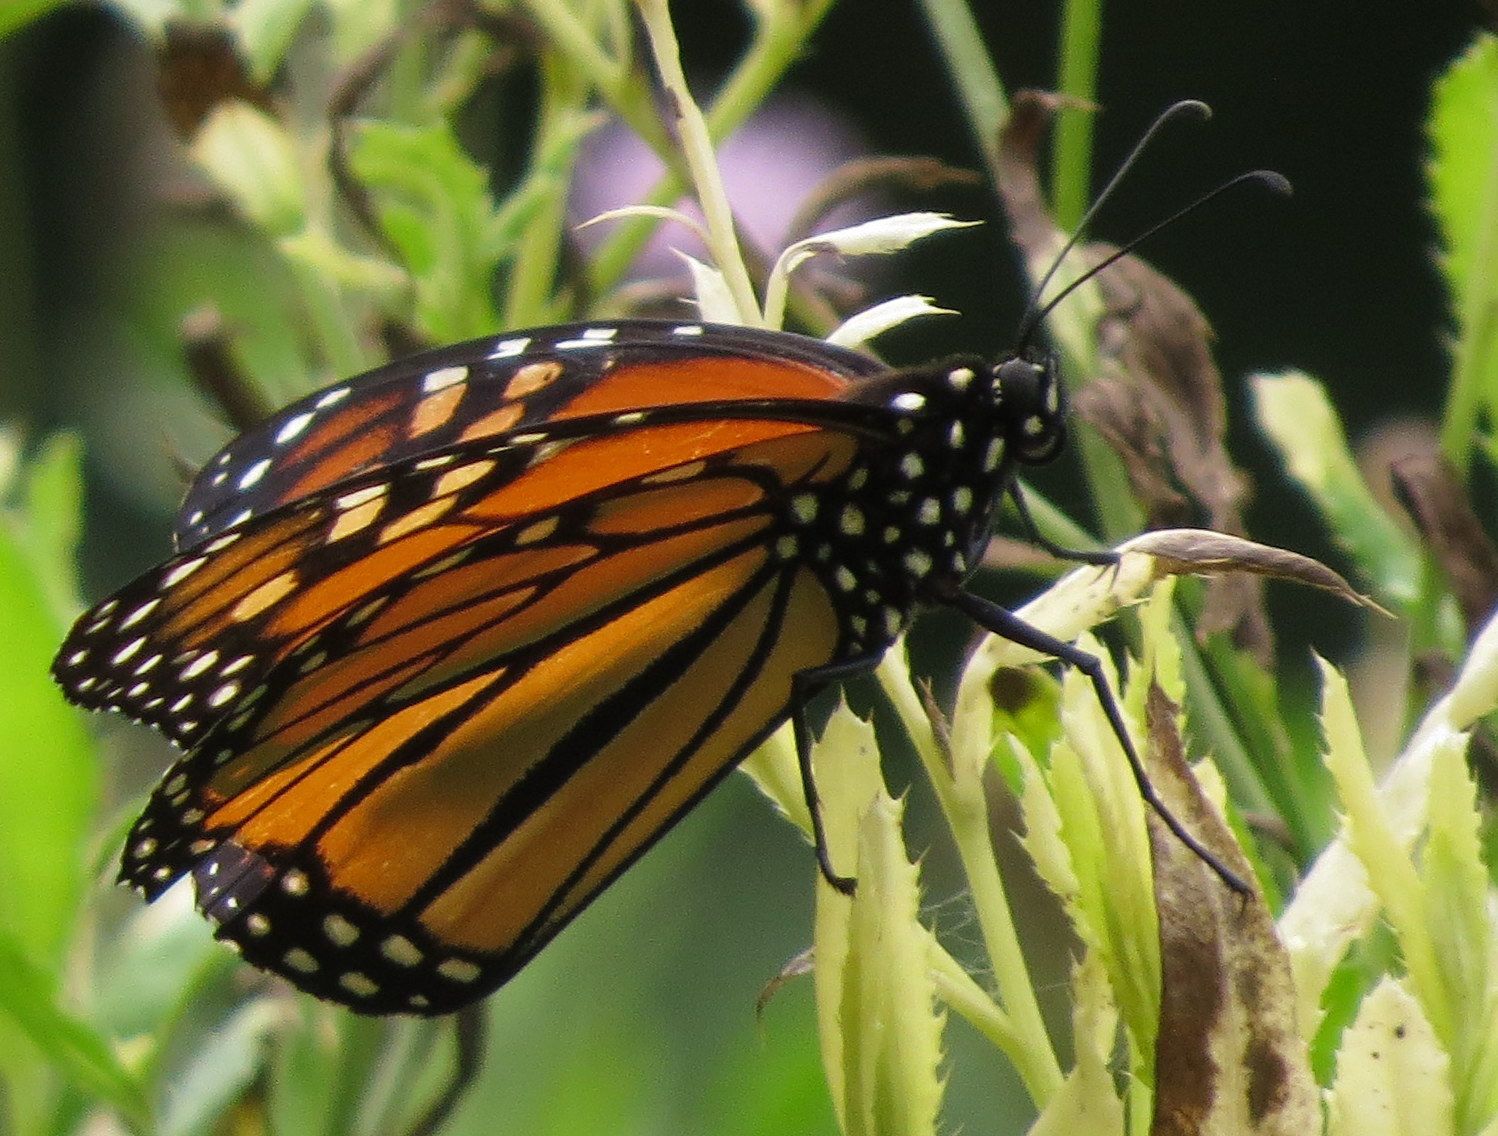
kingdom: Animalia
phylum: Arthropoda
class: Insecta
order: Lepidoptera
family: Nymphalidae
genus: Danaus
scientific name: Danaus plexippus
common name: Monarch
